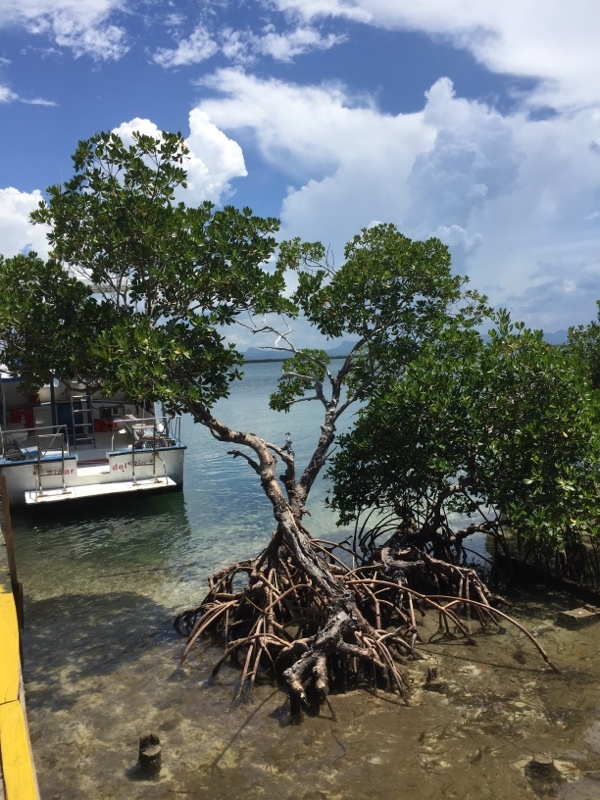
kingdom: Plantae
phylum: Tracheophyta
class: Magnoliopsida
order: Malpighiales
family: Rhizophoraceae
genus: Rhizophora
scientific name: Rhizophora mangle
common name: Red mangrove
